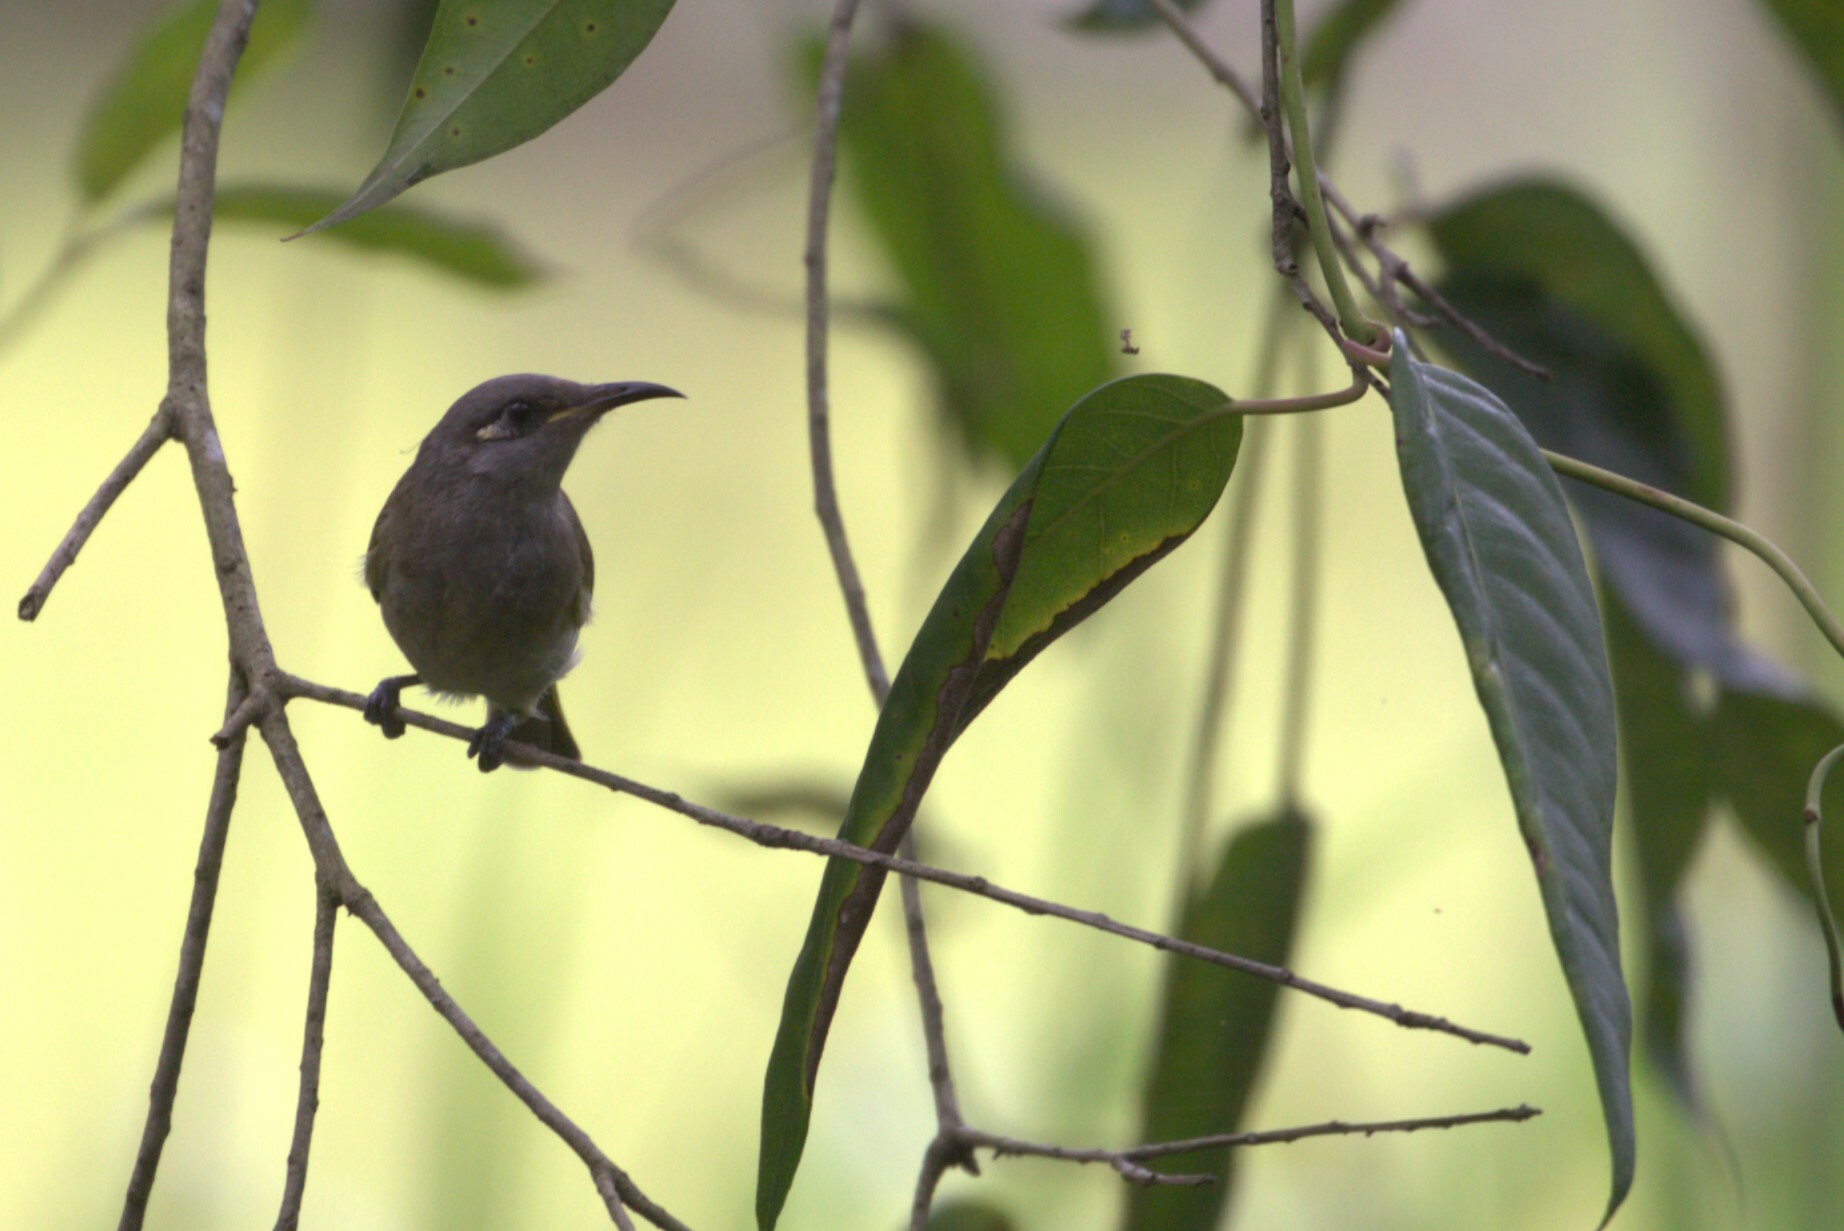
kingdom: Animalia
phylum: Chordata
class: Aves
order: Passeriformes
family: Meliphagidae
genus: Lichmera
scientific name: Lichmera indistincta
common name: Brown honeyeater
